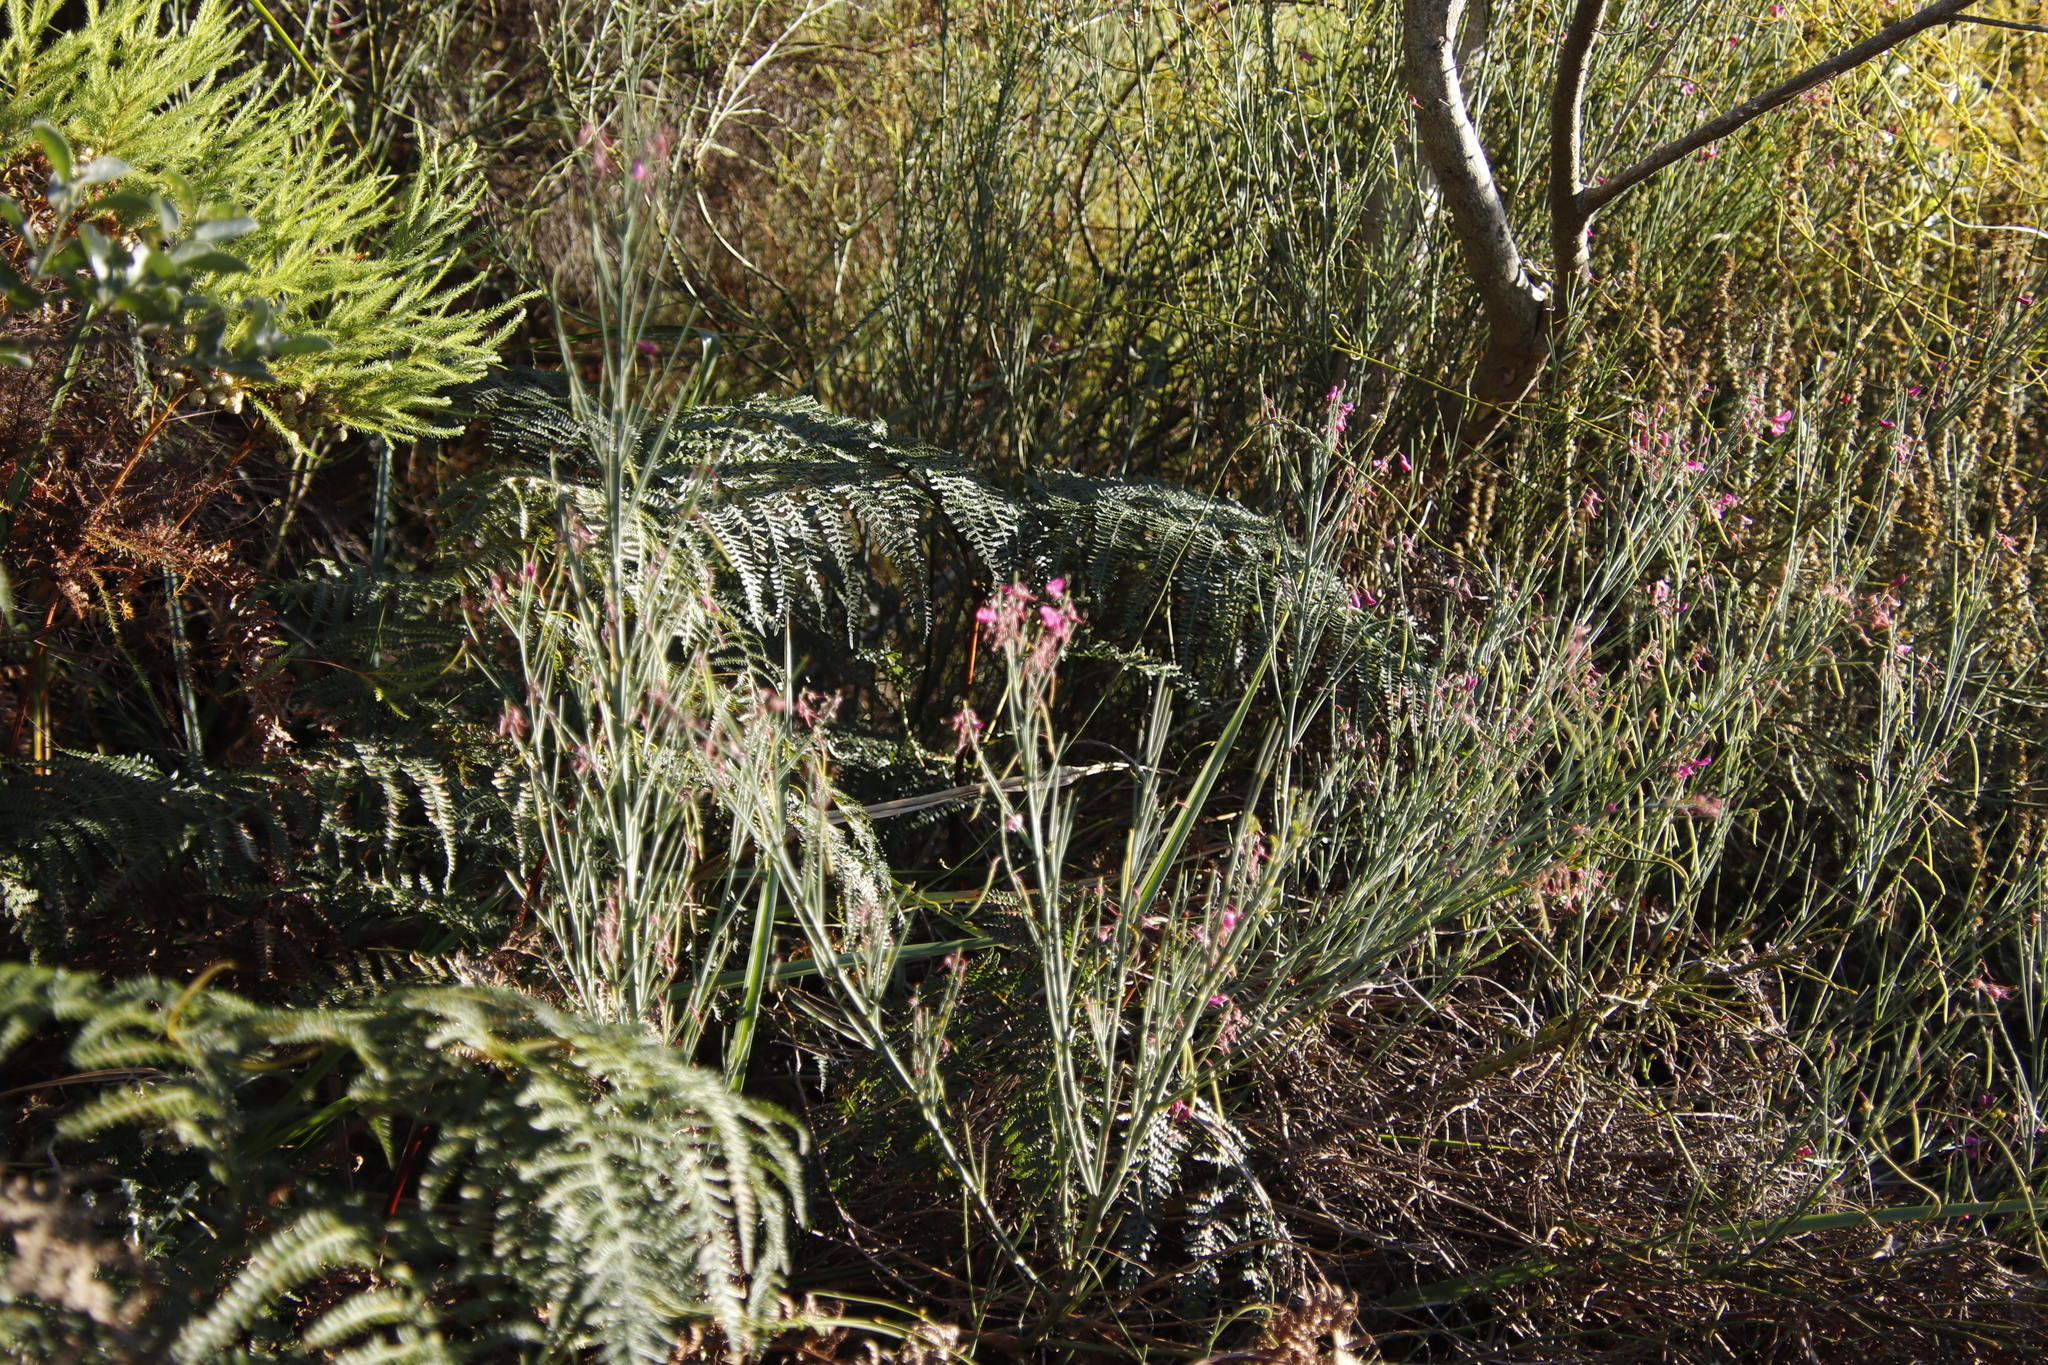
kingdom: Plantae
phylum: Tracheophyta
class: Magnoliopsida
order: Fabales
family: Fabaceae
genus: Indigofera
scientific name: Indigofera filifolia
